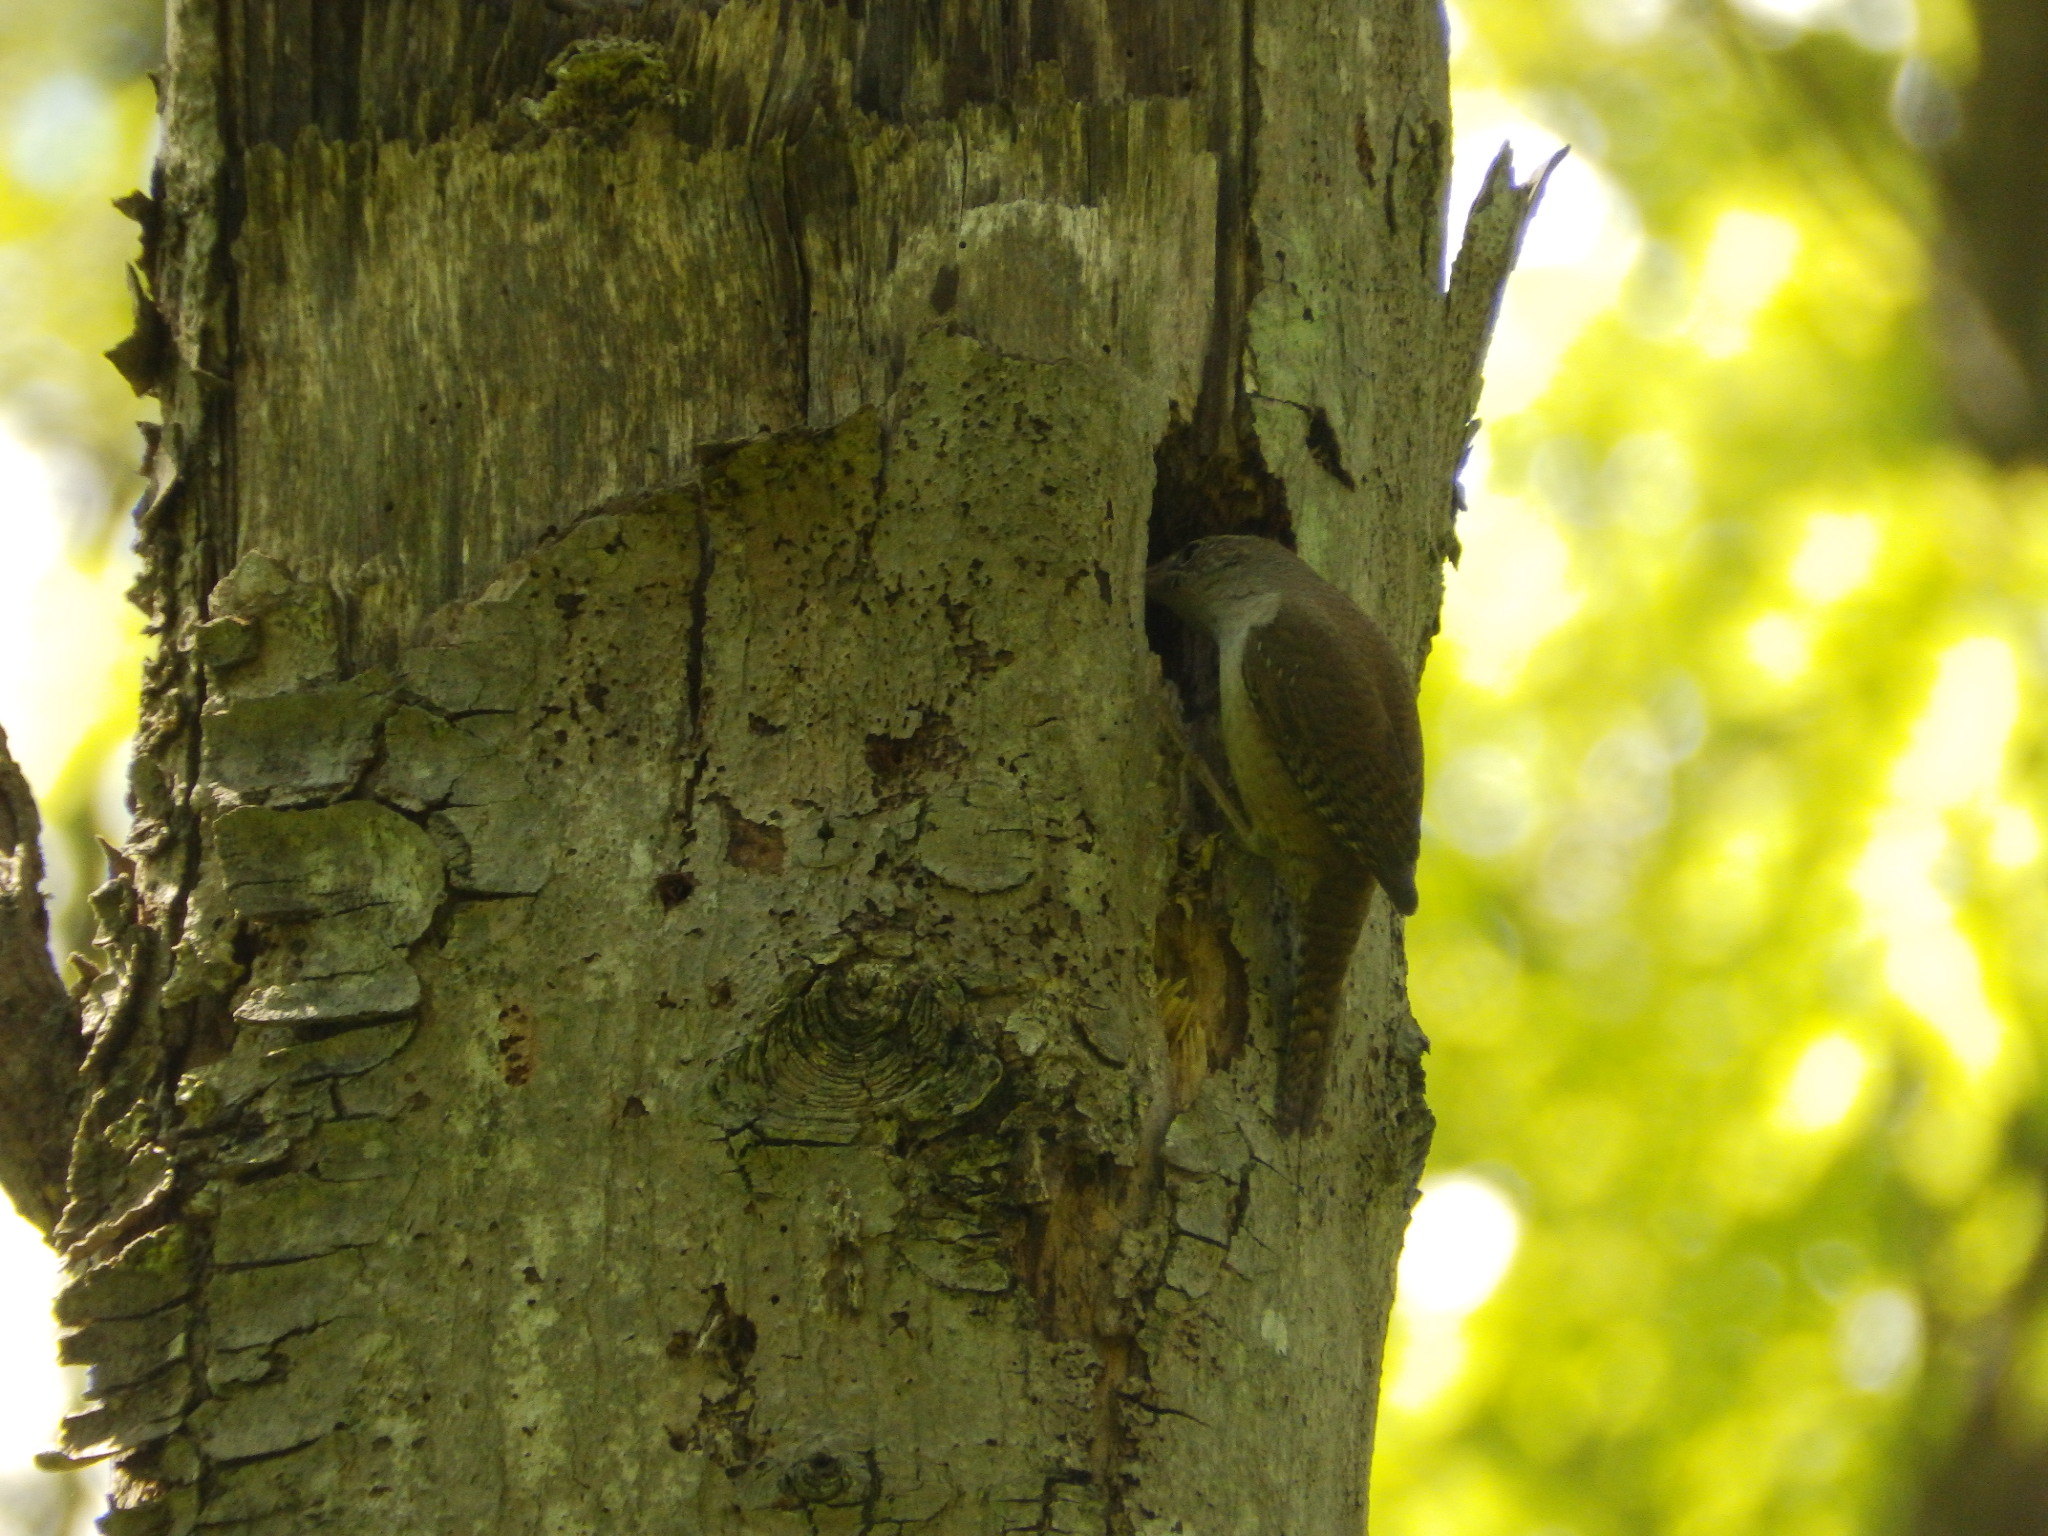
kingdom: Animalia
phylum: Chordata
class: Aves
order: Passeriformes
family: Troglodytidae
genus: Troglodytes
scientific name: Troglodytes aedon
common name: House wren
